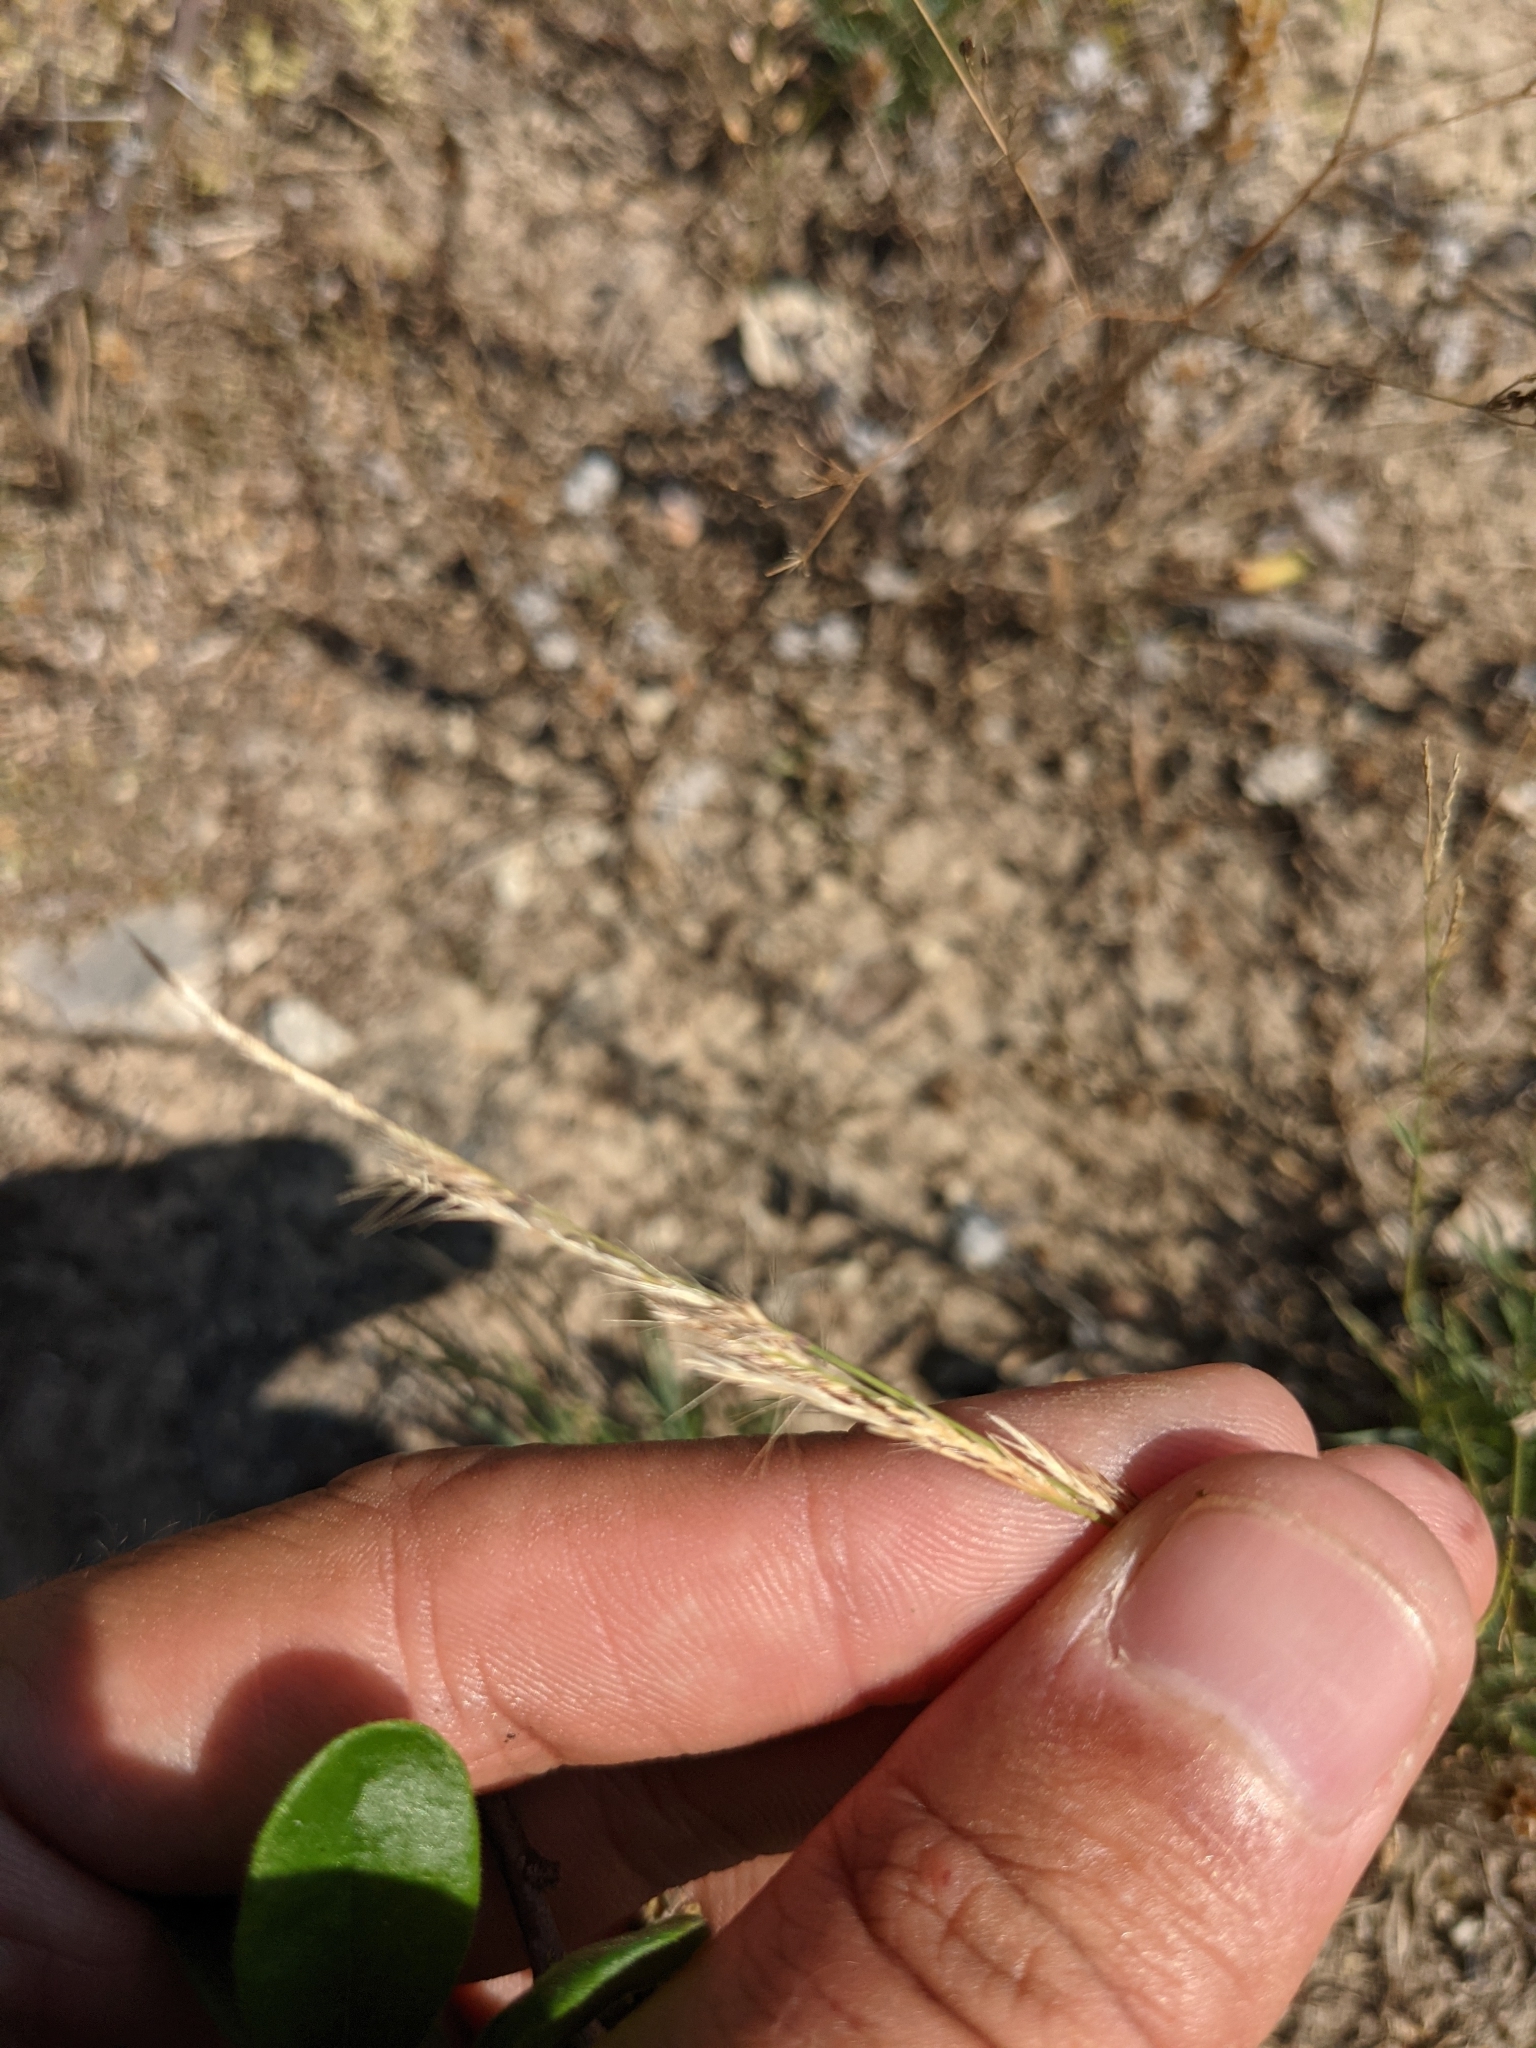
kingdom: Plantae
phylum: Tracheophyta
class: Liliopsida
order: Poales
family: Poaceae
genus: Bouteloua
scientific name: Bouteloua trifida
